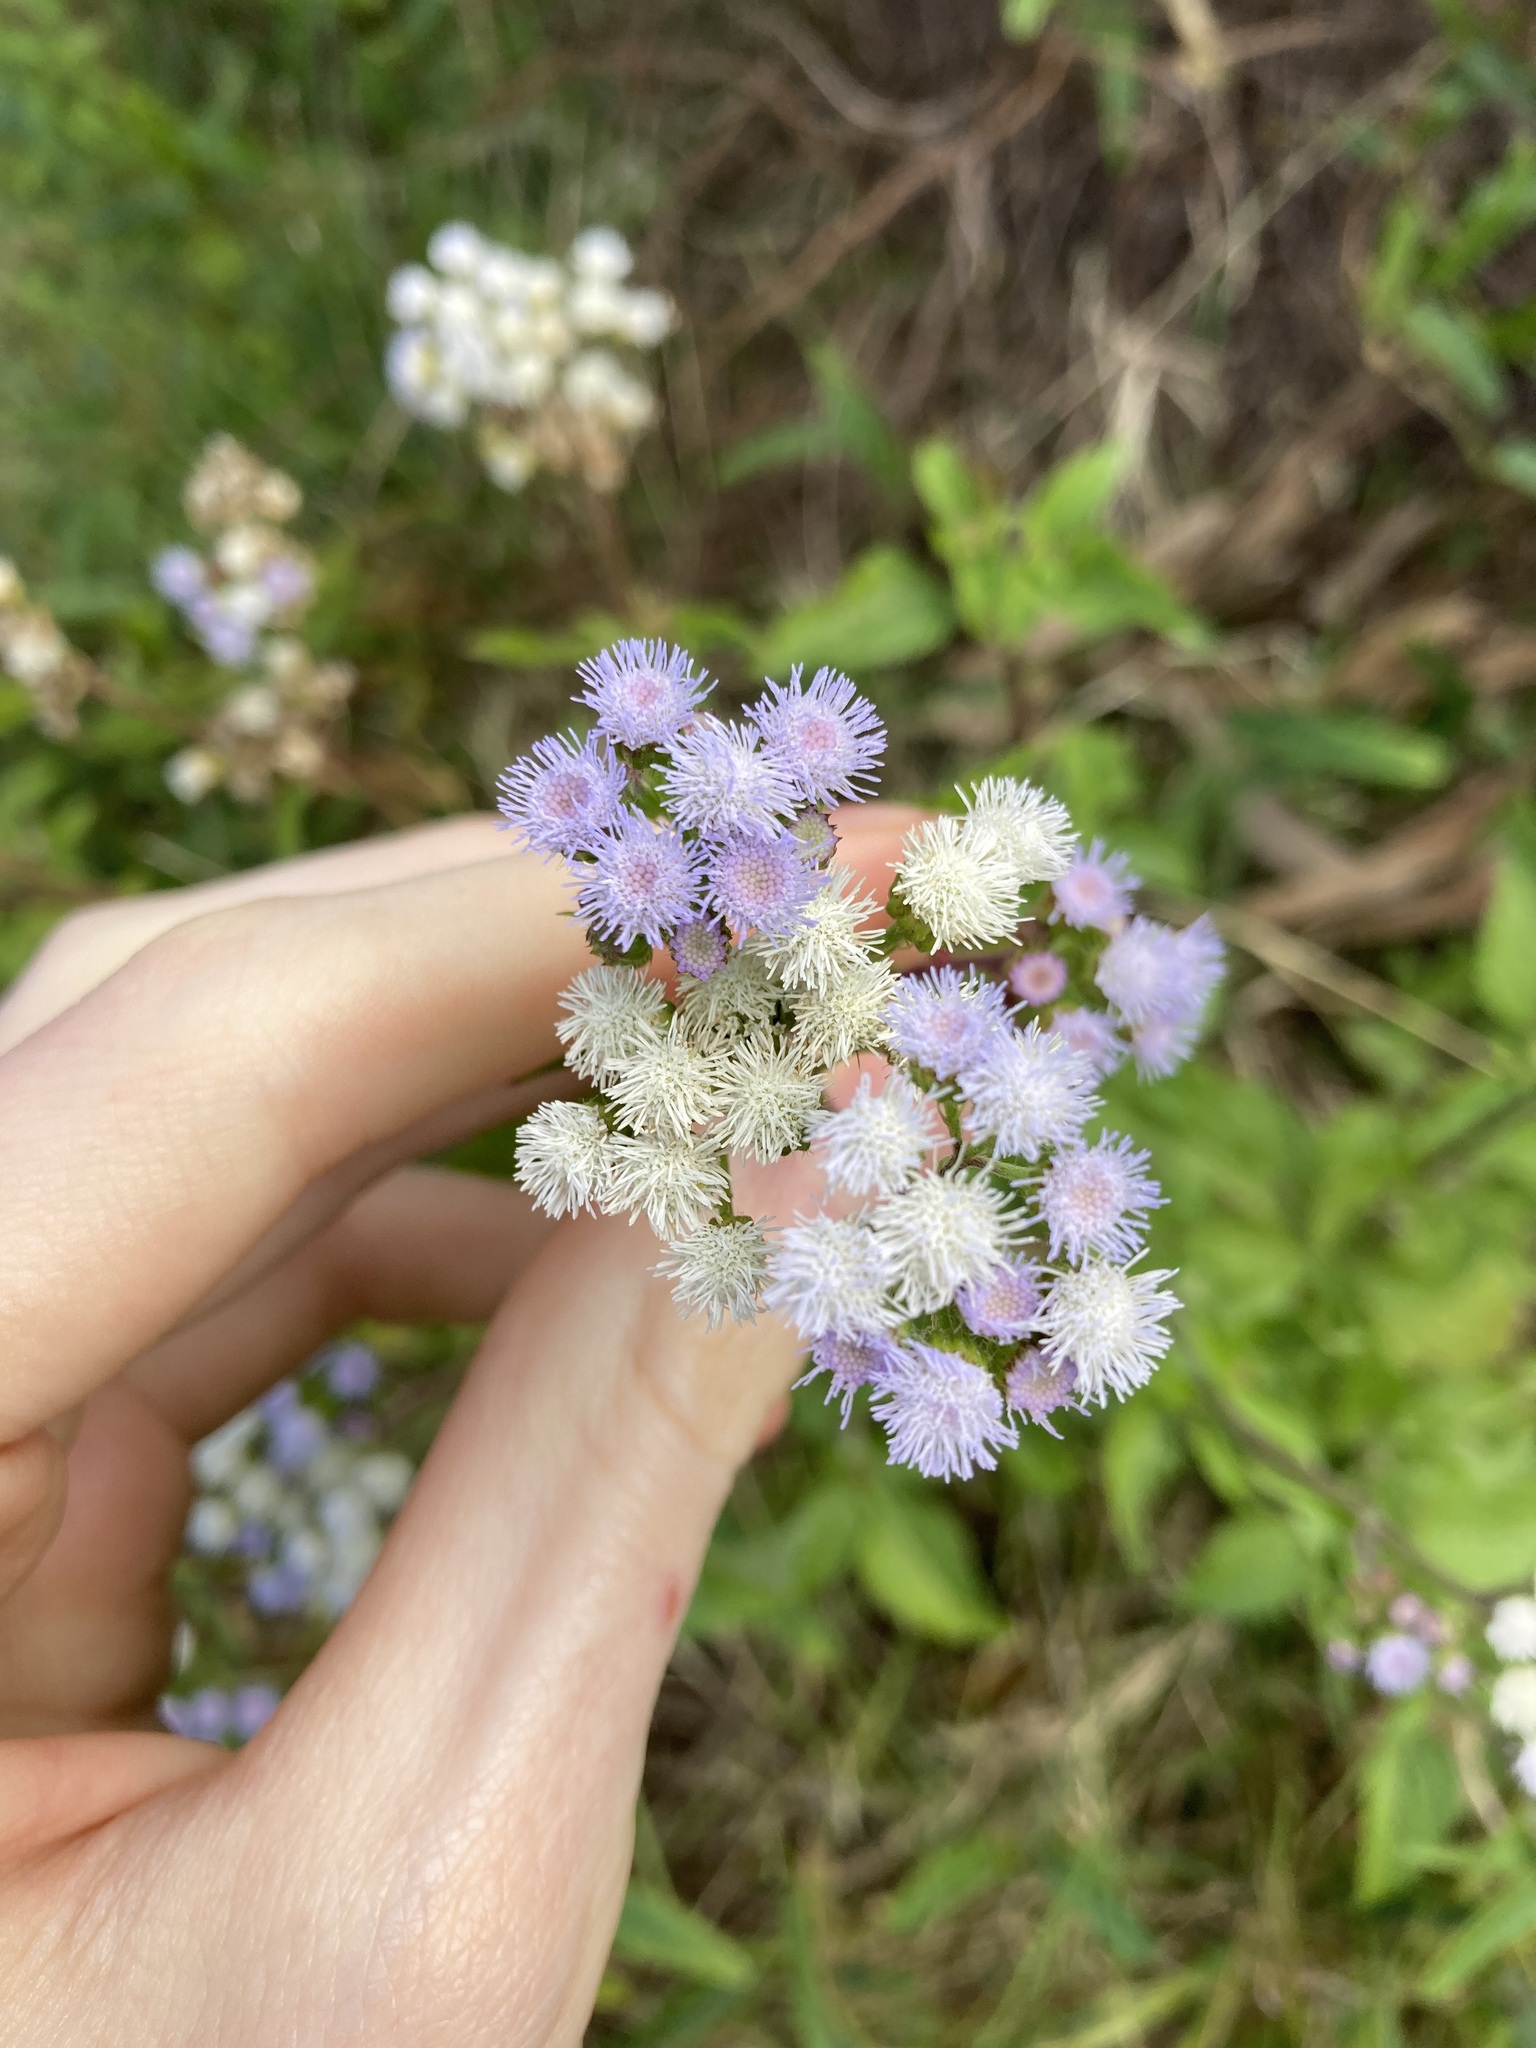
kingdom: Plantae
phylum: Tracheophyta
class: Magnoliopsida
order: Asterales
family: Asteraceae
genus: Ageratum
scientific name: Ageratum houstonianum
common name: Bluemink
